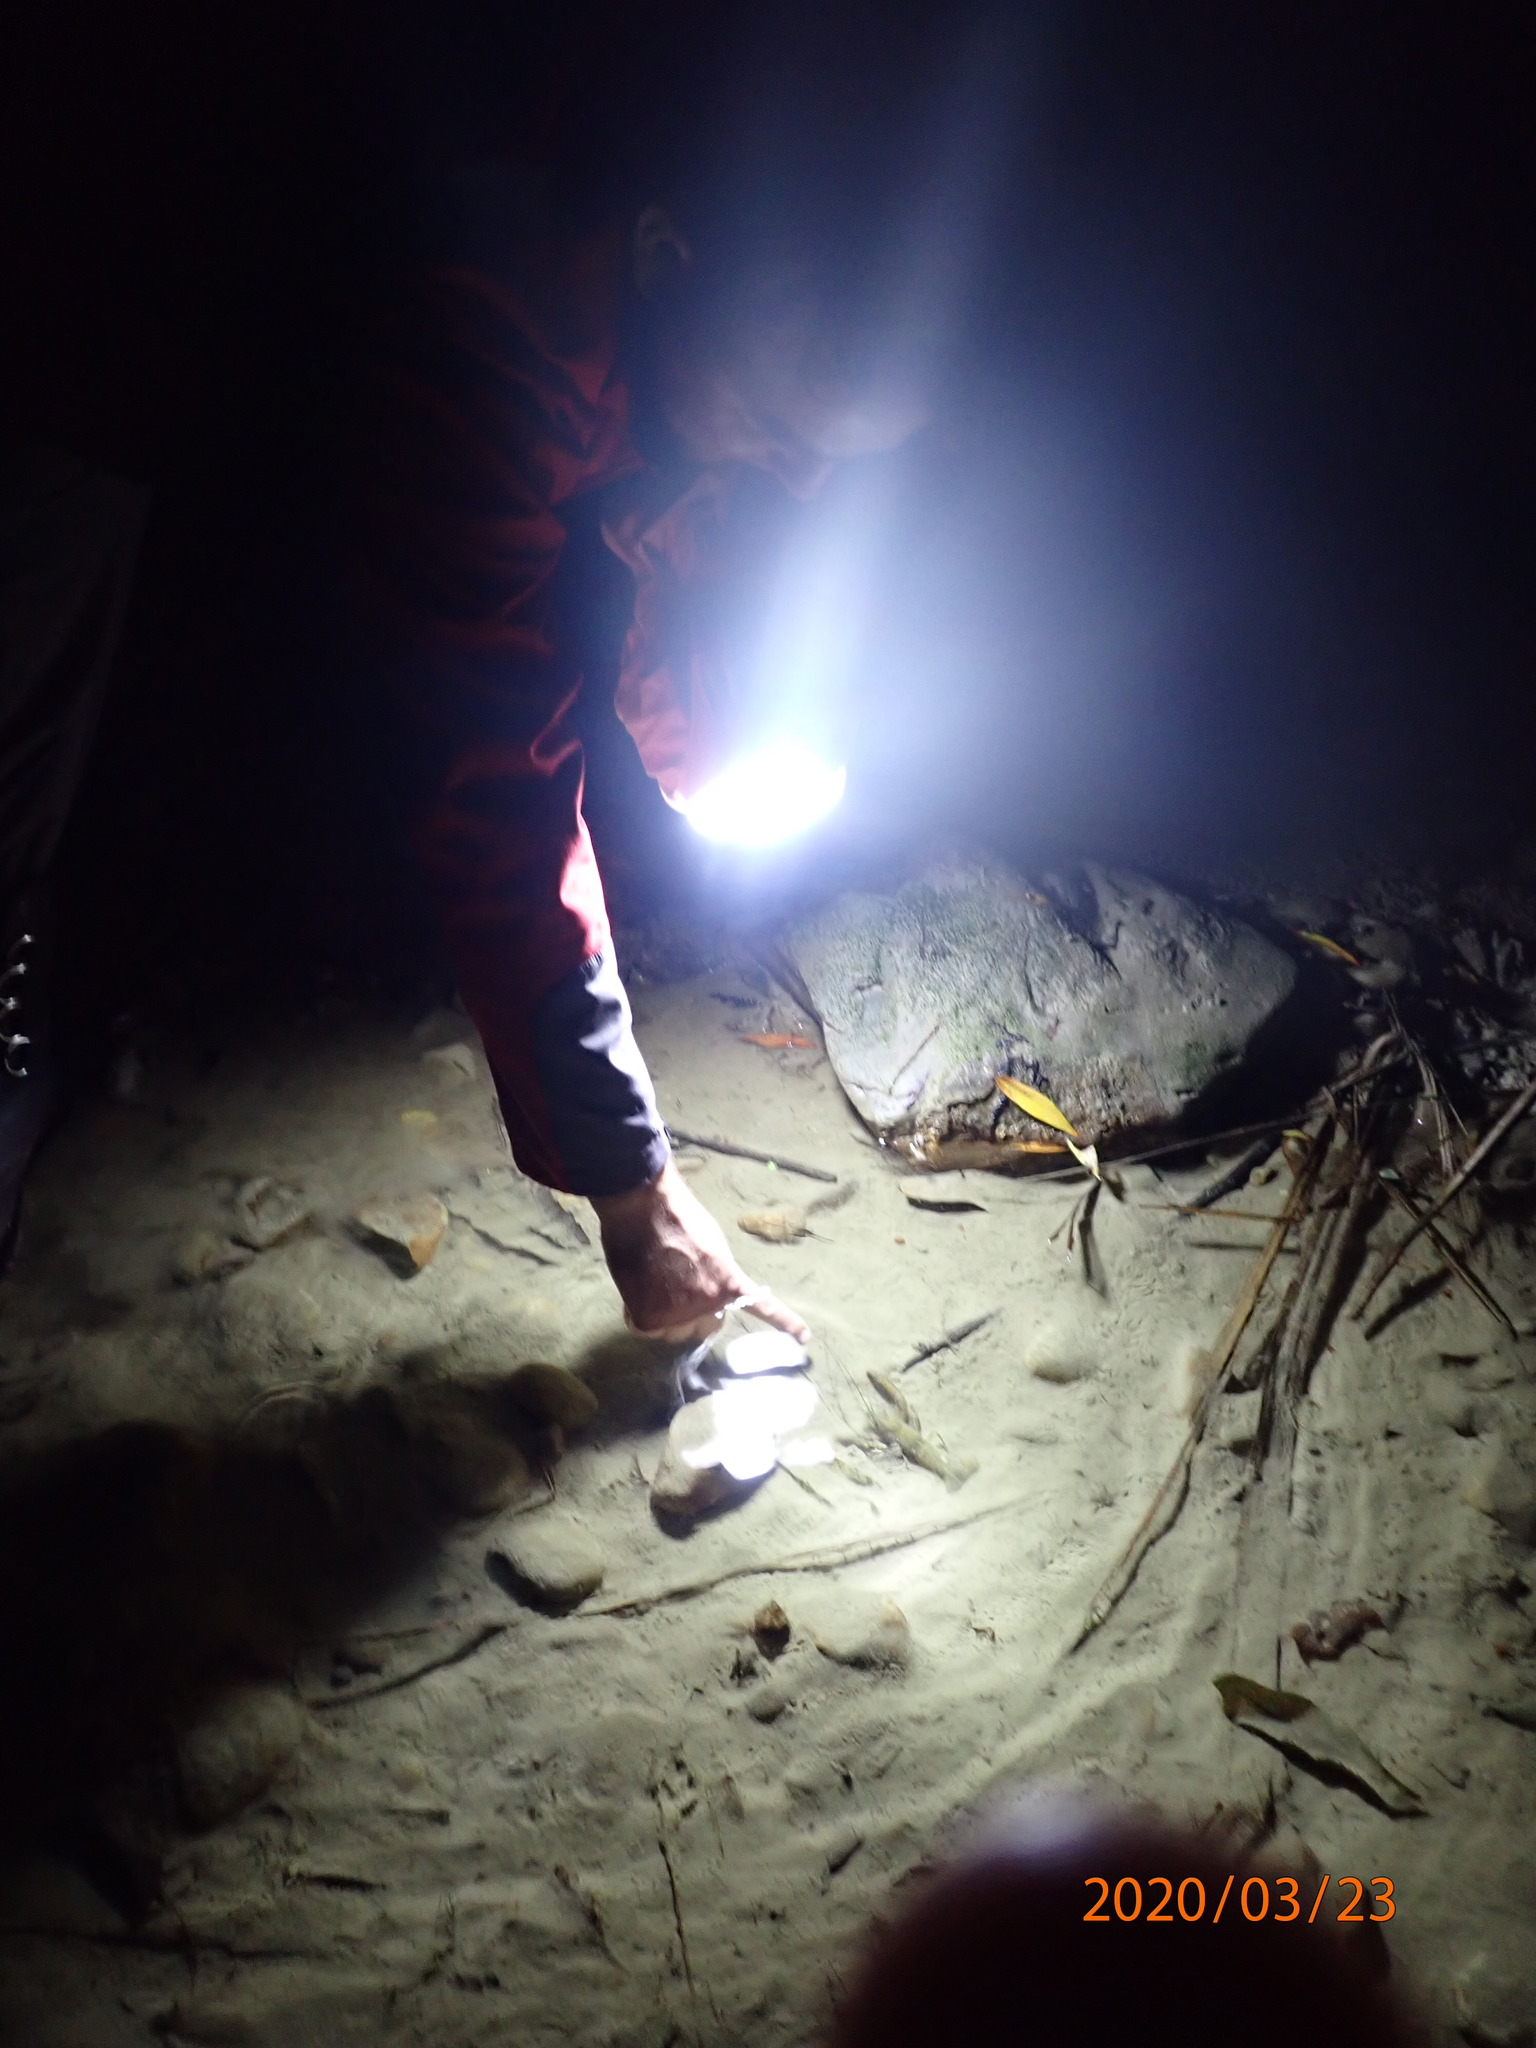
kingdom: Animalia
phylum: Arthropoda
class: Malacostraca
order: Decapoda
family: Parastacidae
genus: Paranephrops
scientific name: Paranephrops planifrons
